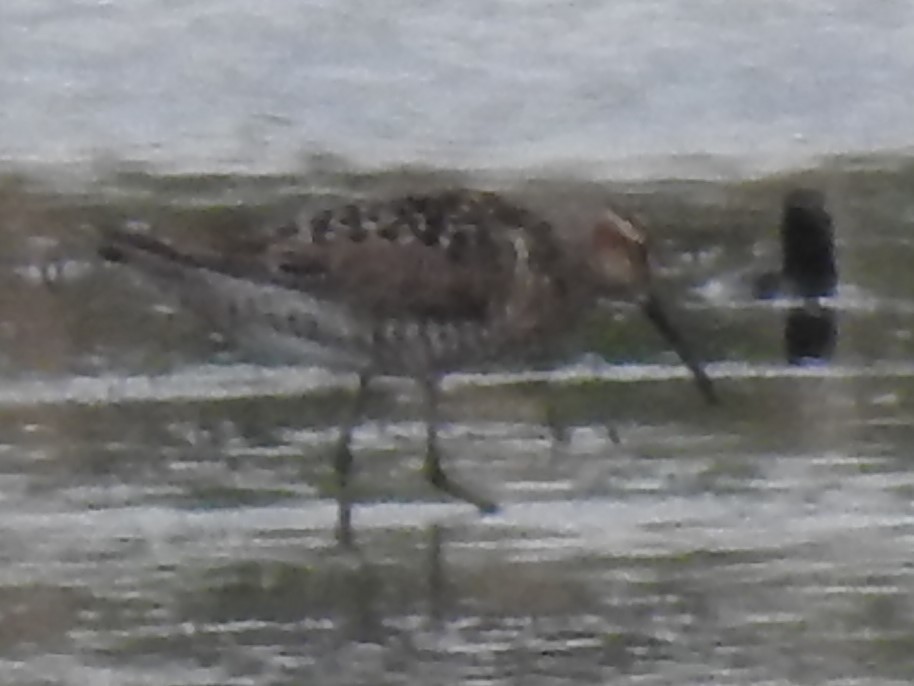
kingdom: Animalia
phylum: Chordata
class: Aves
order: Charadriiformes
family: Scolopacidae
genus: Calidris
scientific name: Calidris himantopus
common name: Stilt sandpiper
